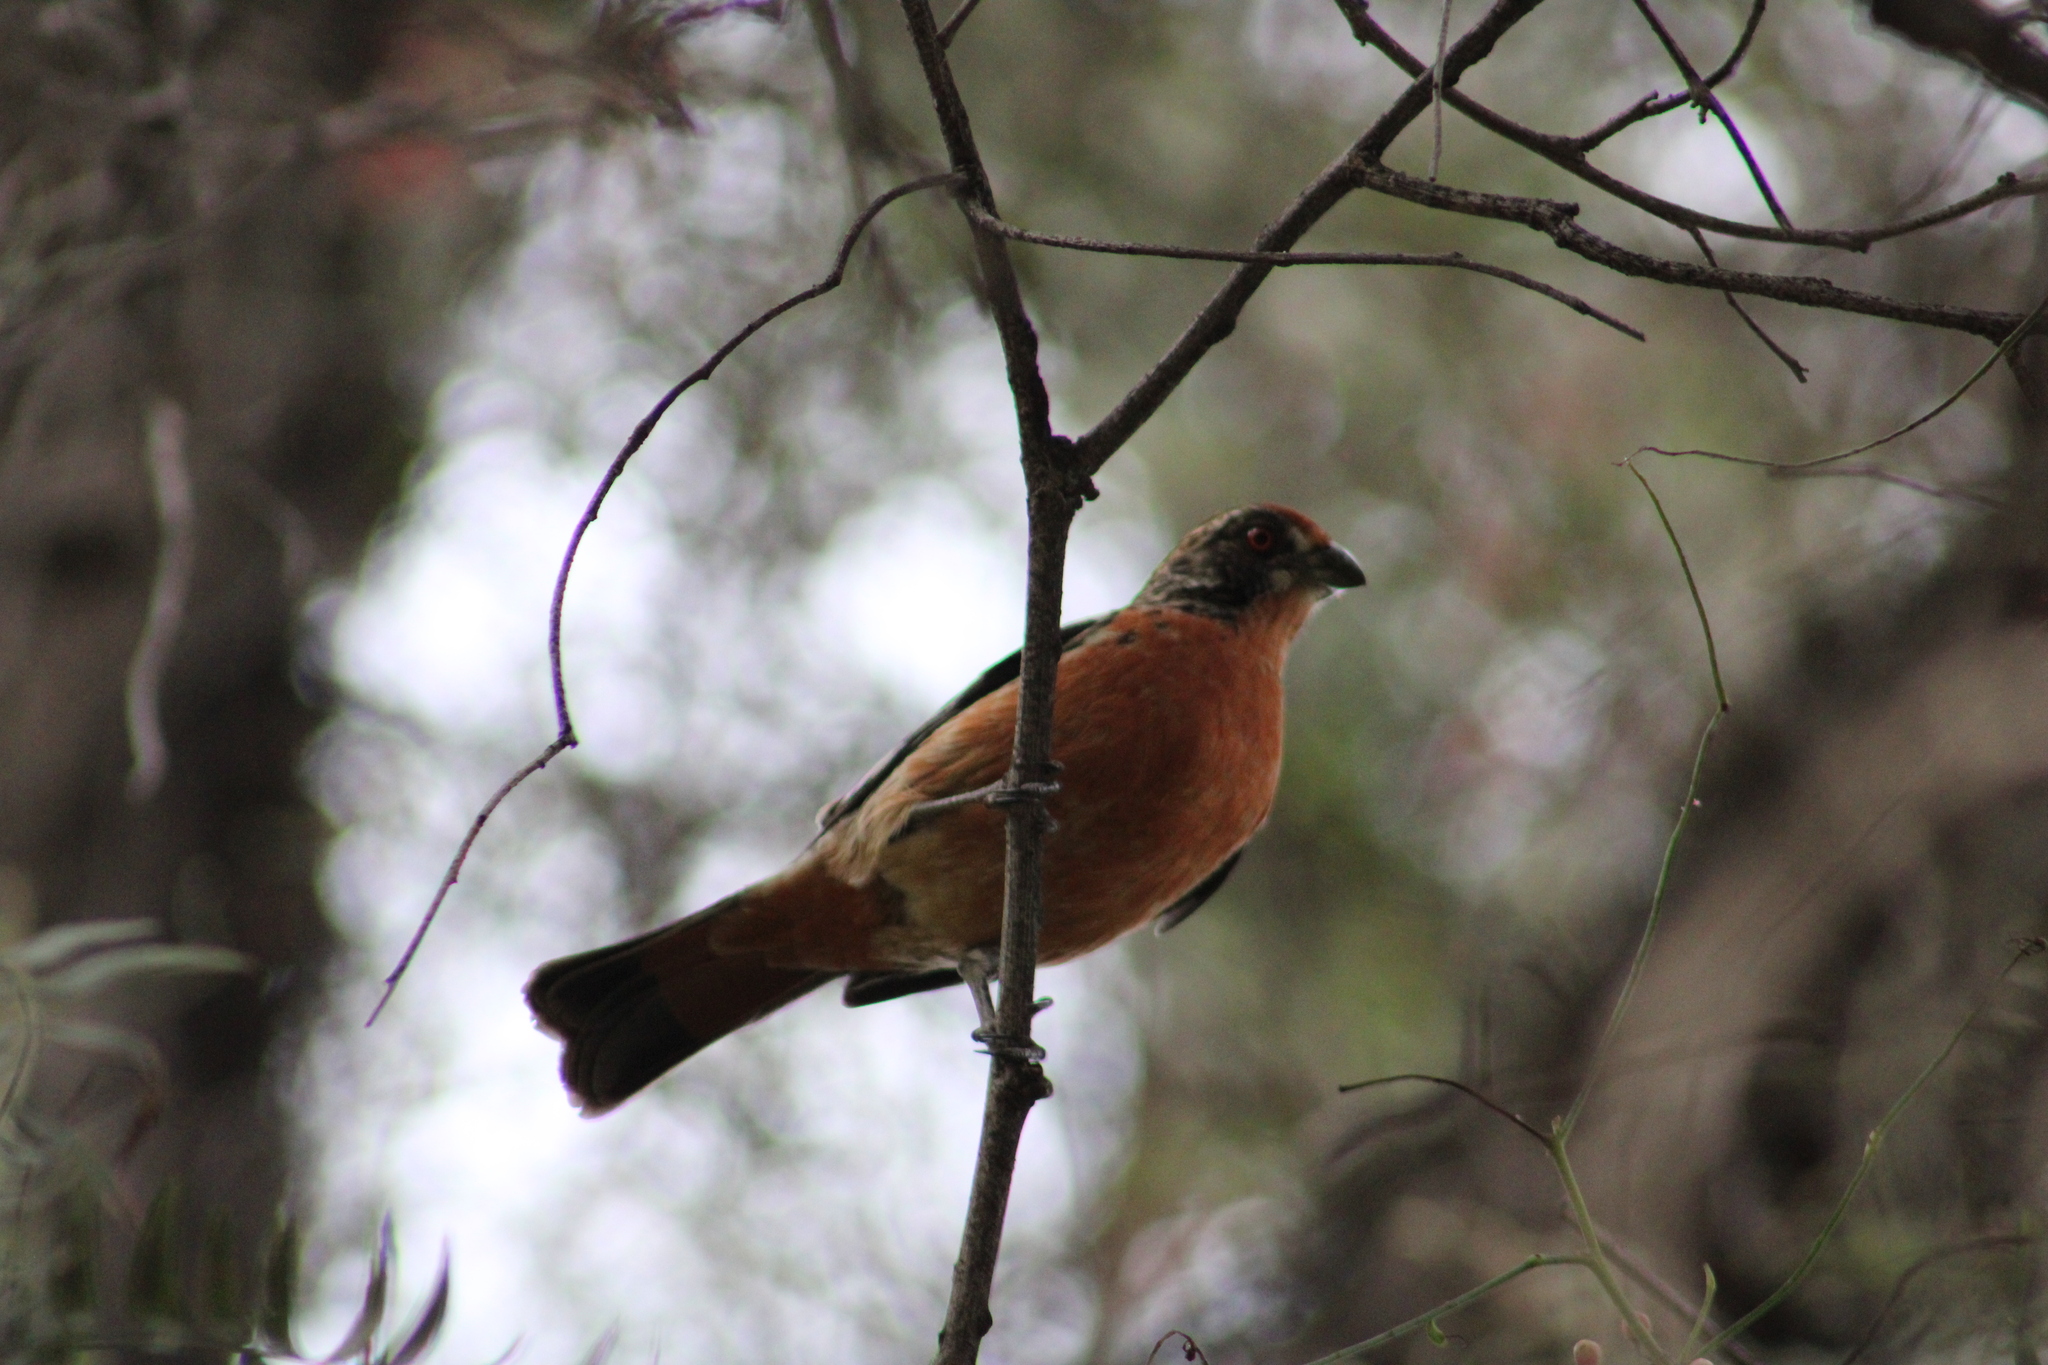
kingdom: Animalia
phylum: Chordata
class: Aves
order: Passeriformes
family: Cotingidae
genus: Phytotoma
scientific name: Phytotoma rara
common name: Rufous-tailed plantcutter
